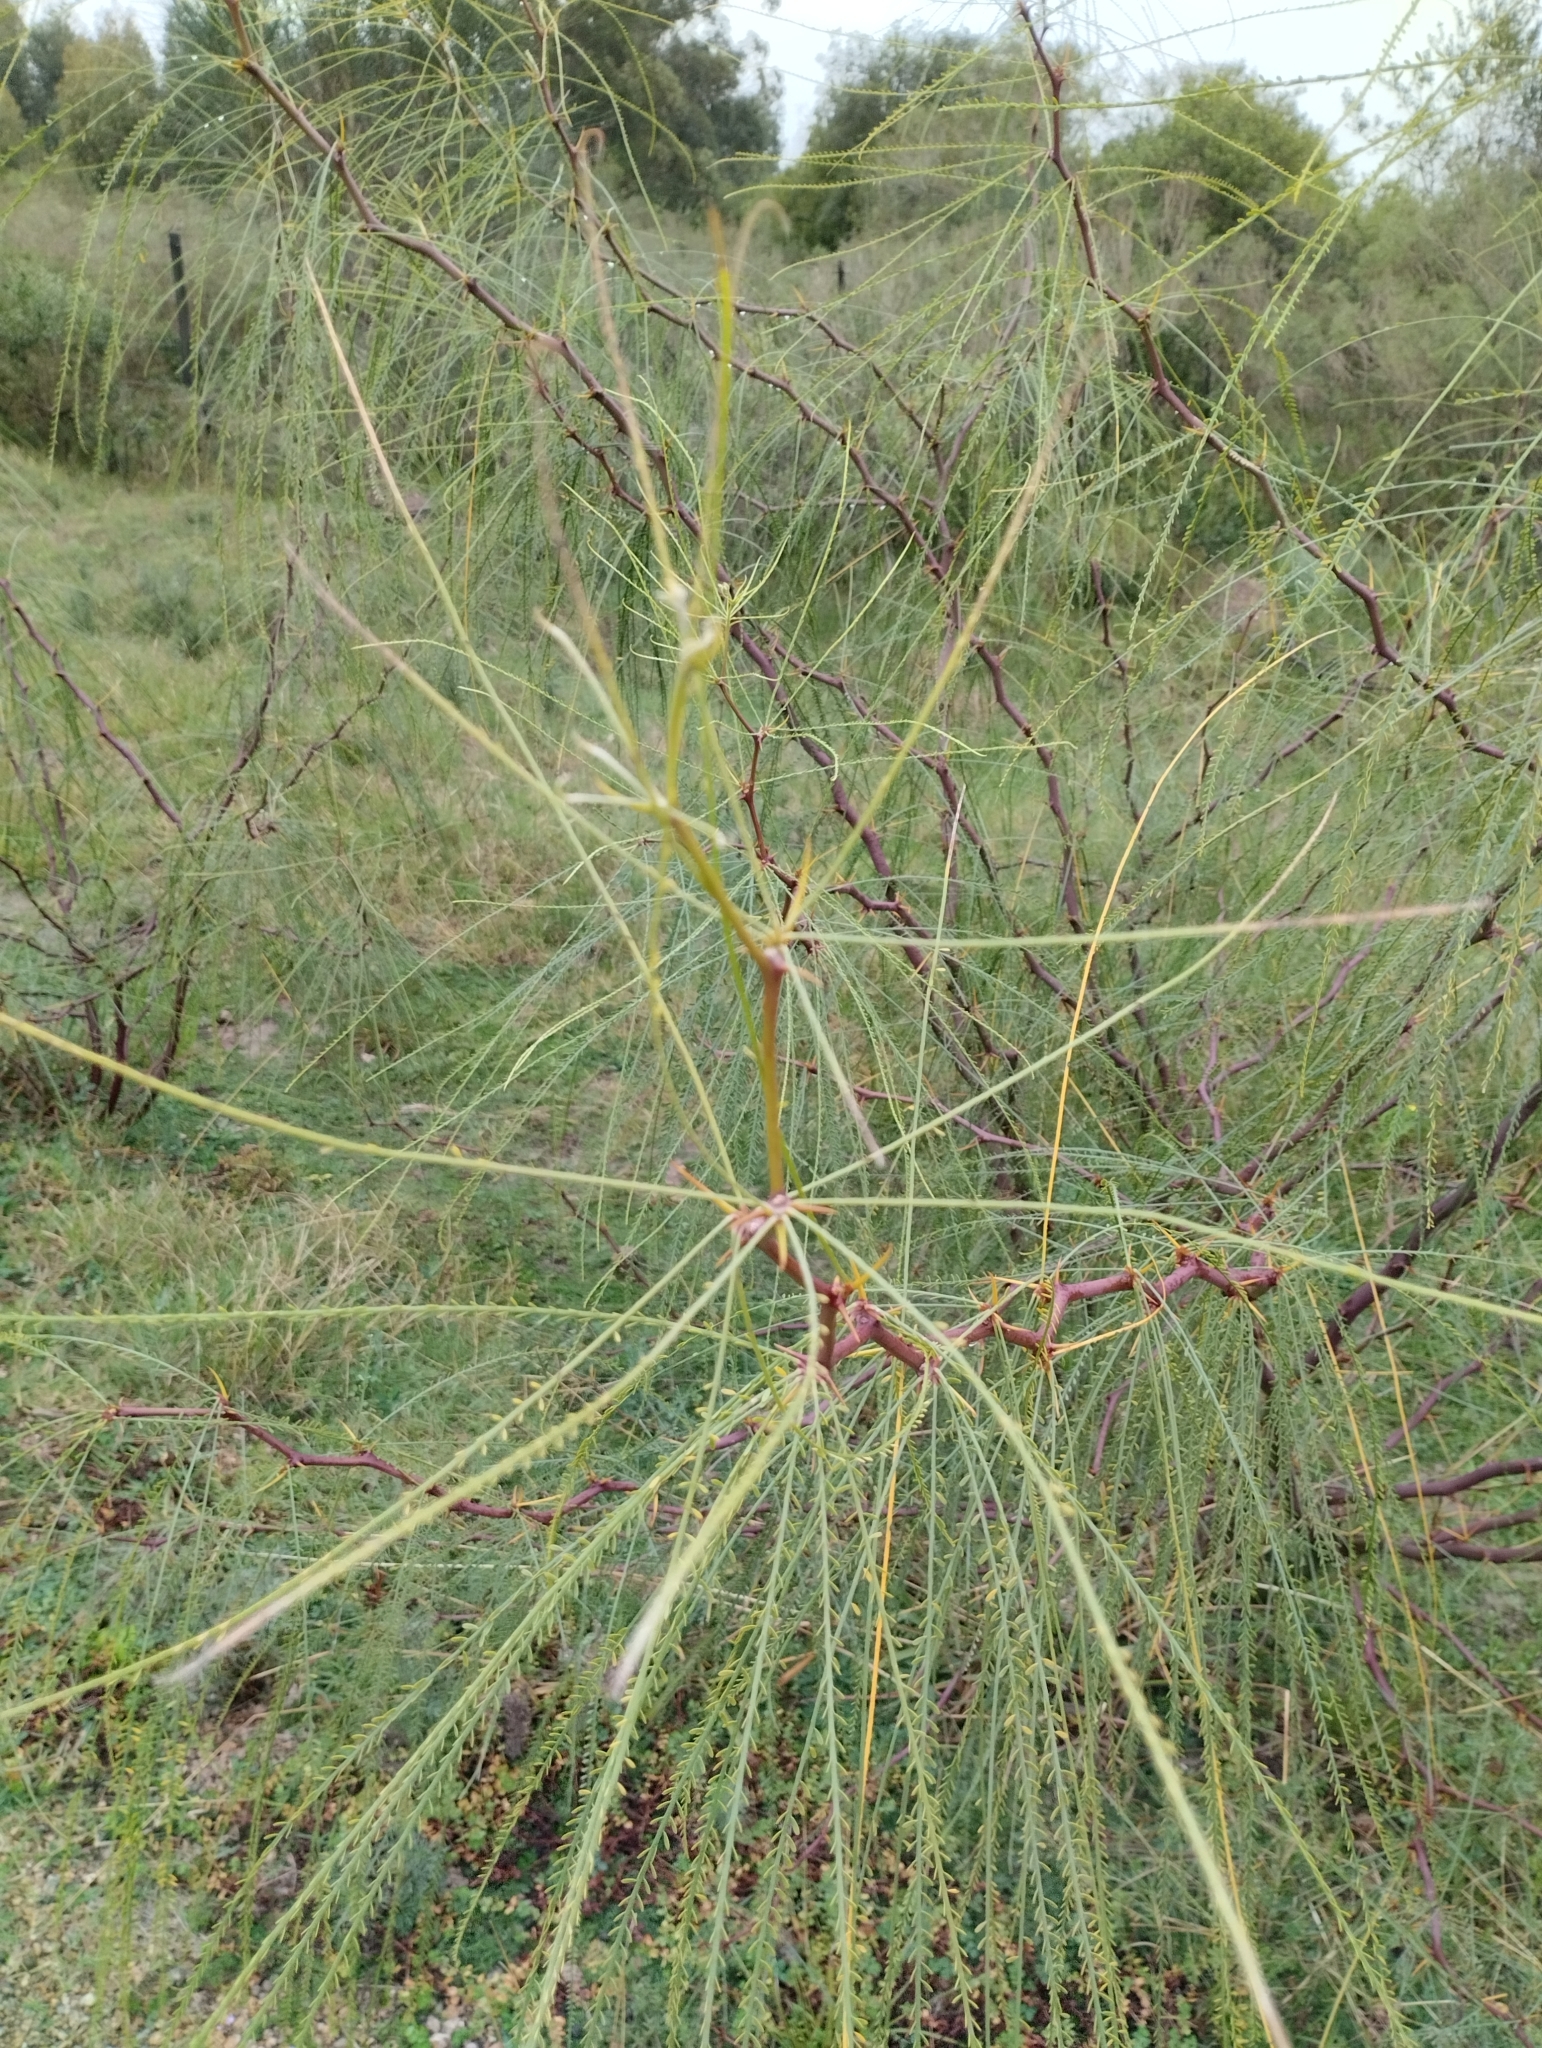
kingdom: Plantae
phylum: Tracheophyta
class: Magnoliopsida
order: Fabales
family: Fabaceae
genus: Parkinsonia
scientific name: Parkinsonia aculeata
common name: Jerusalem thorn
